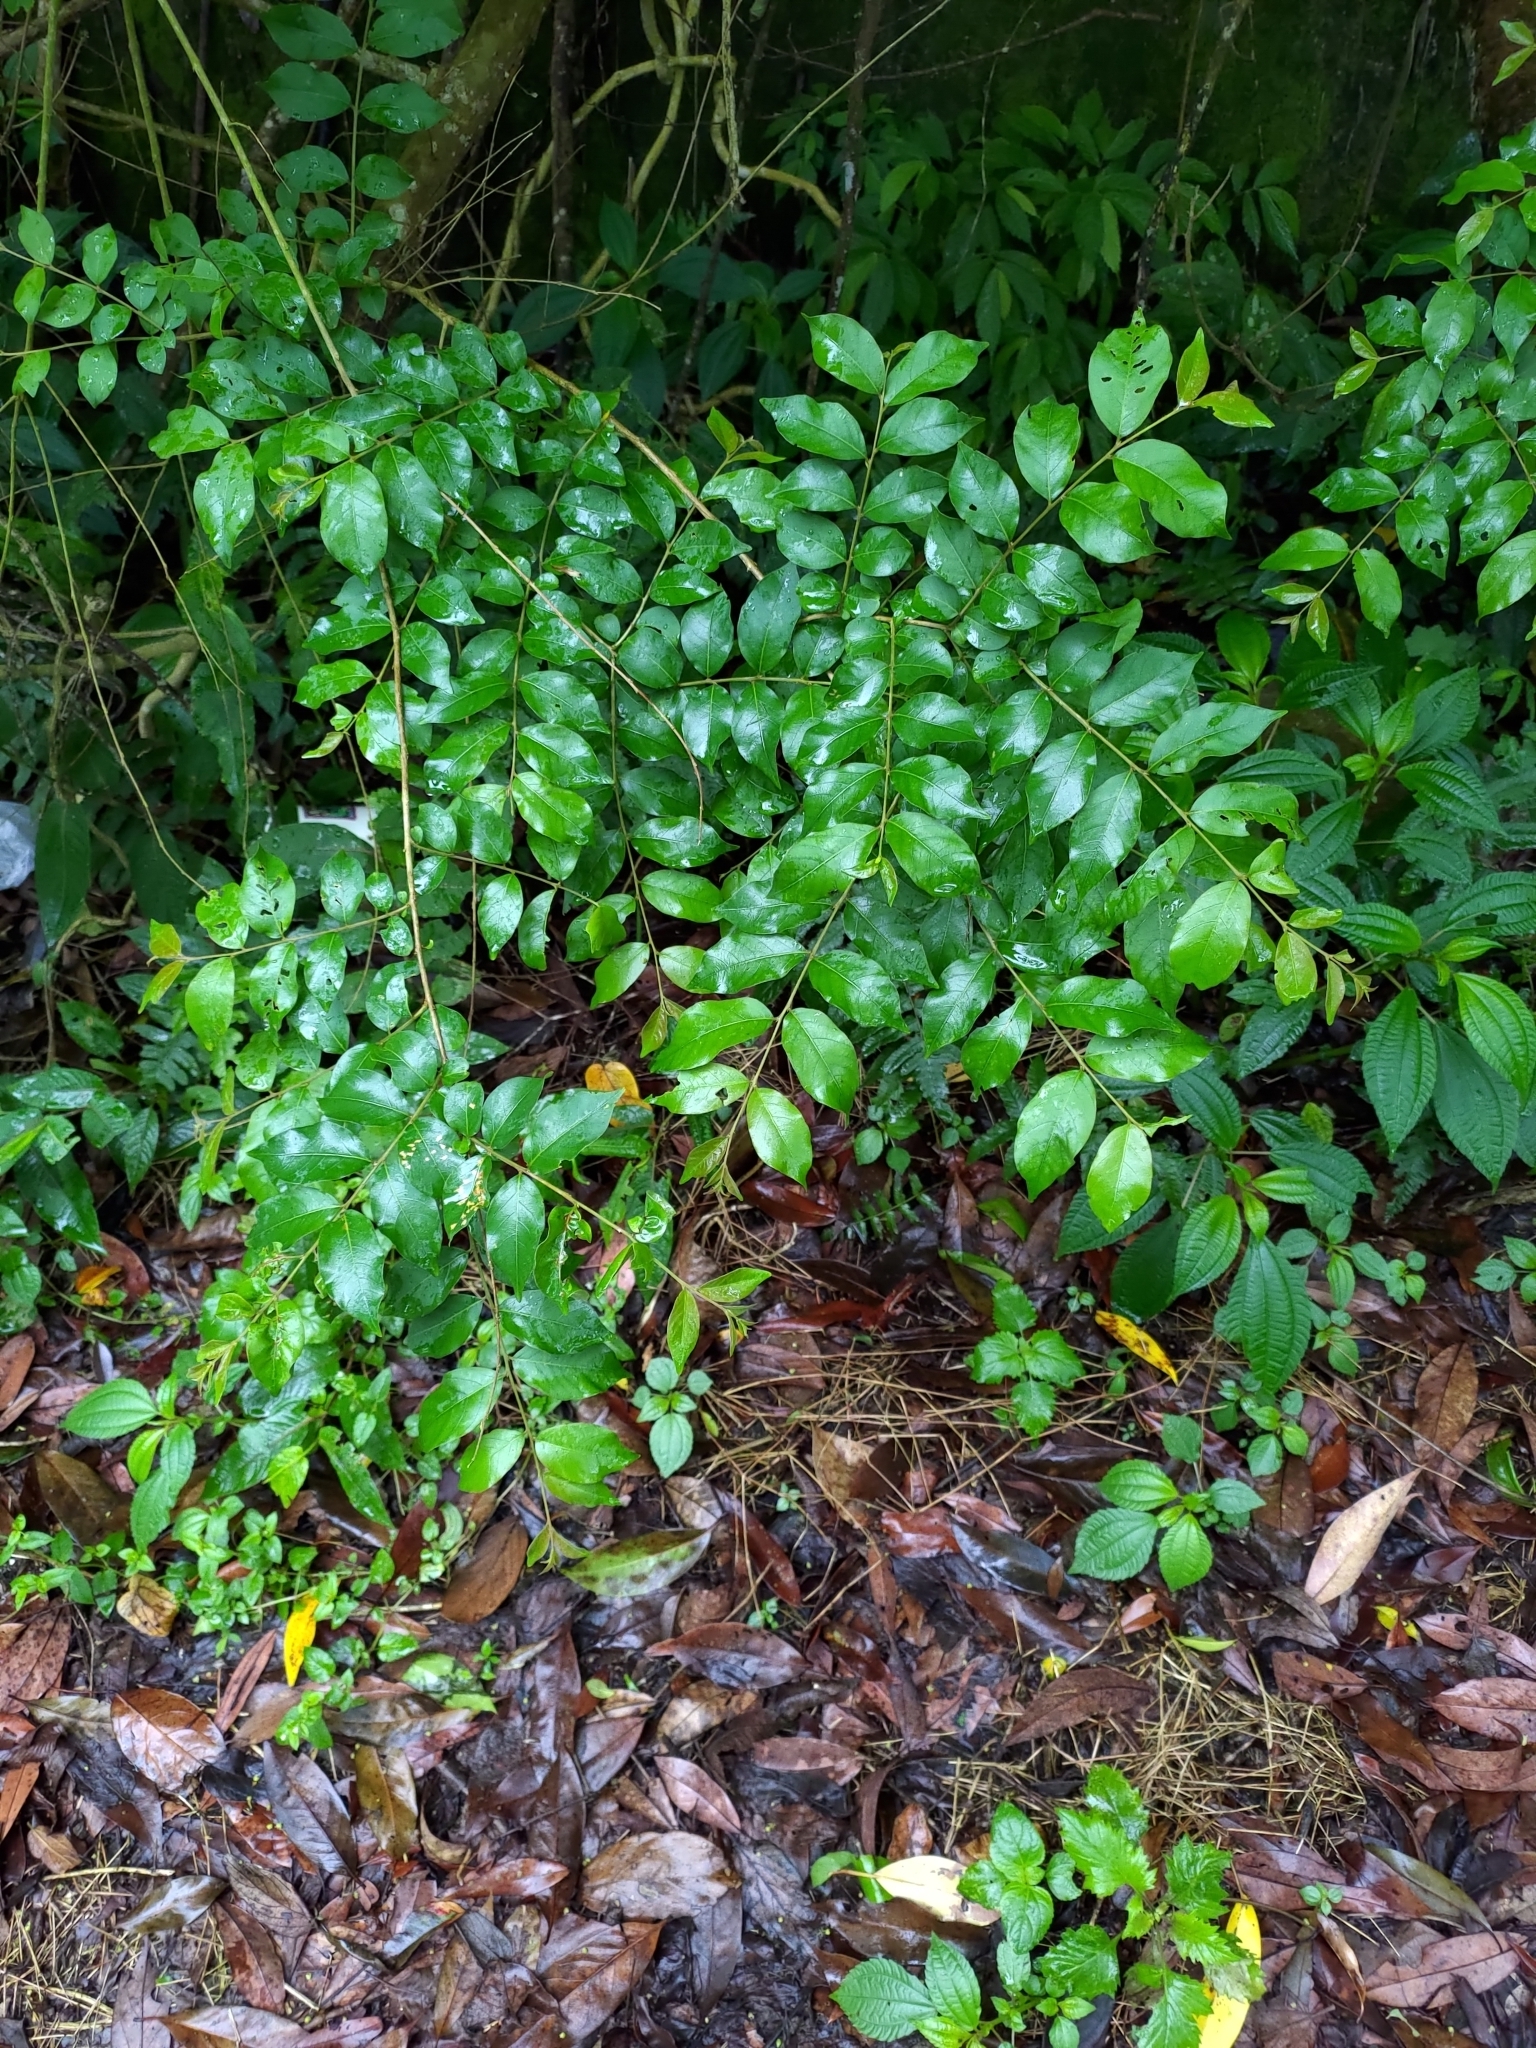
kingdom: Plantae
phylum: Tracheophyta
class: Magnoliopsida
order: Myrtales
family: Lythraceae
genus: Lagerstroemia
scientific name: Lagerstroemia subcostata
